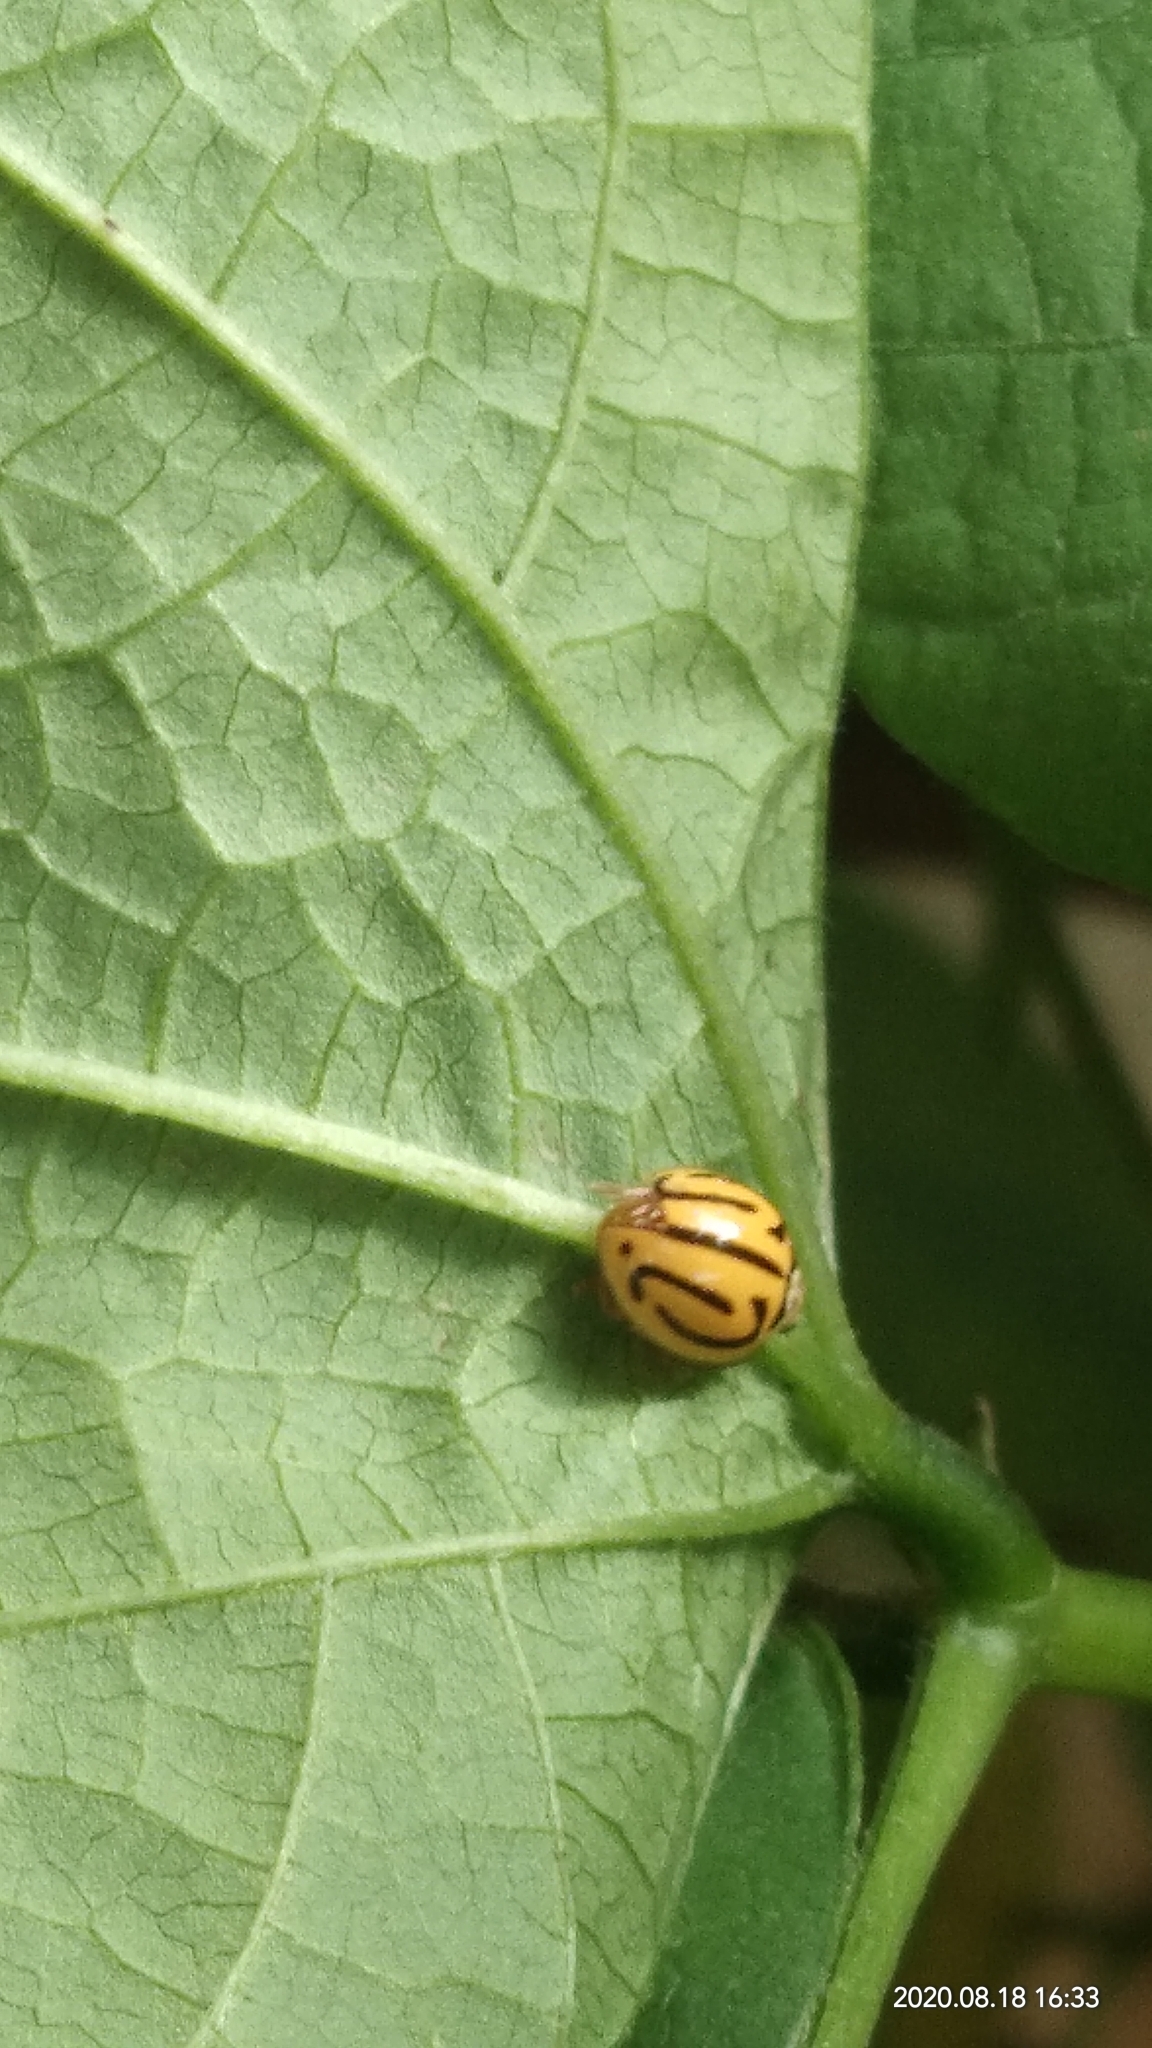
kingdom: Animalia
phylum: Arthropoda
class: Insecta
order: Coleoptera
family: Coccinellidae
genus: Anegleis
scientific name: Anegleis cardoni
